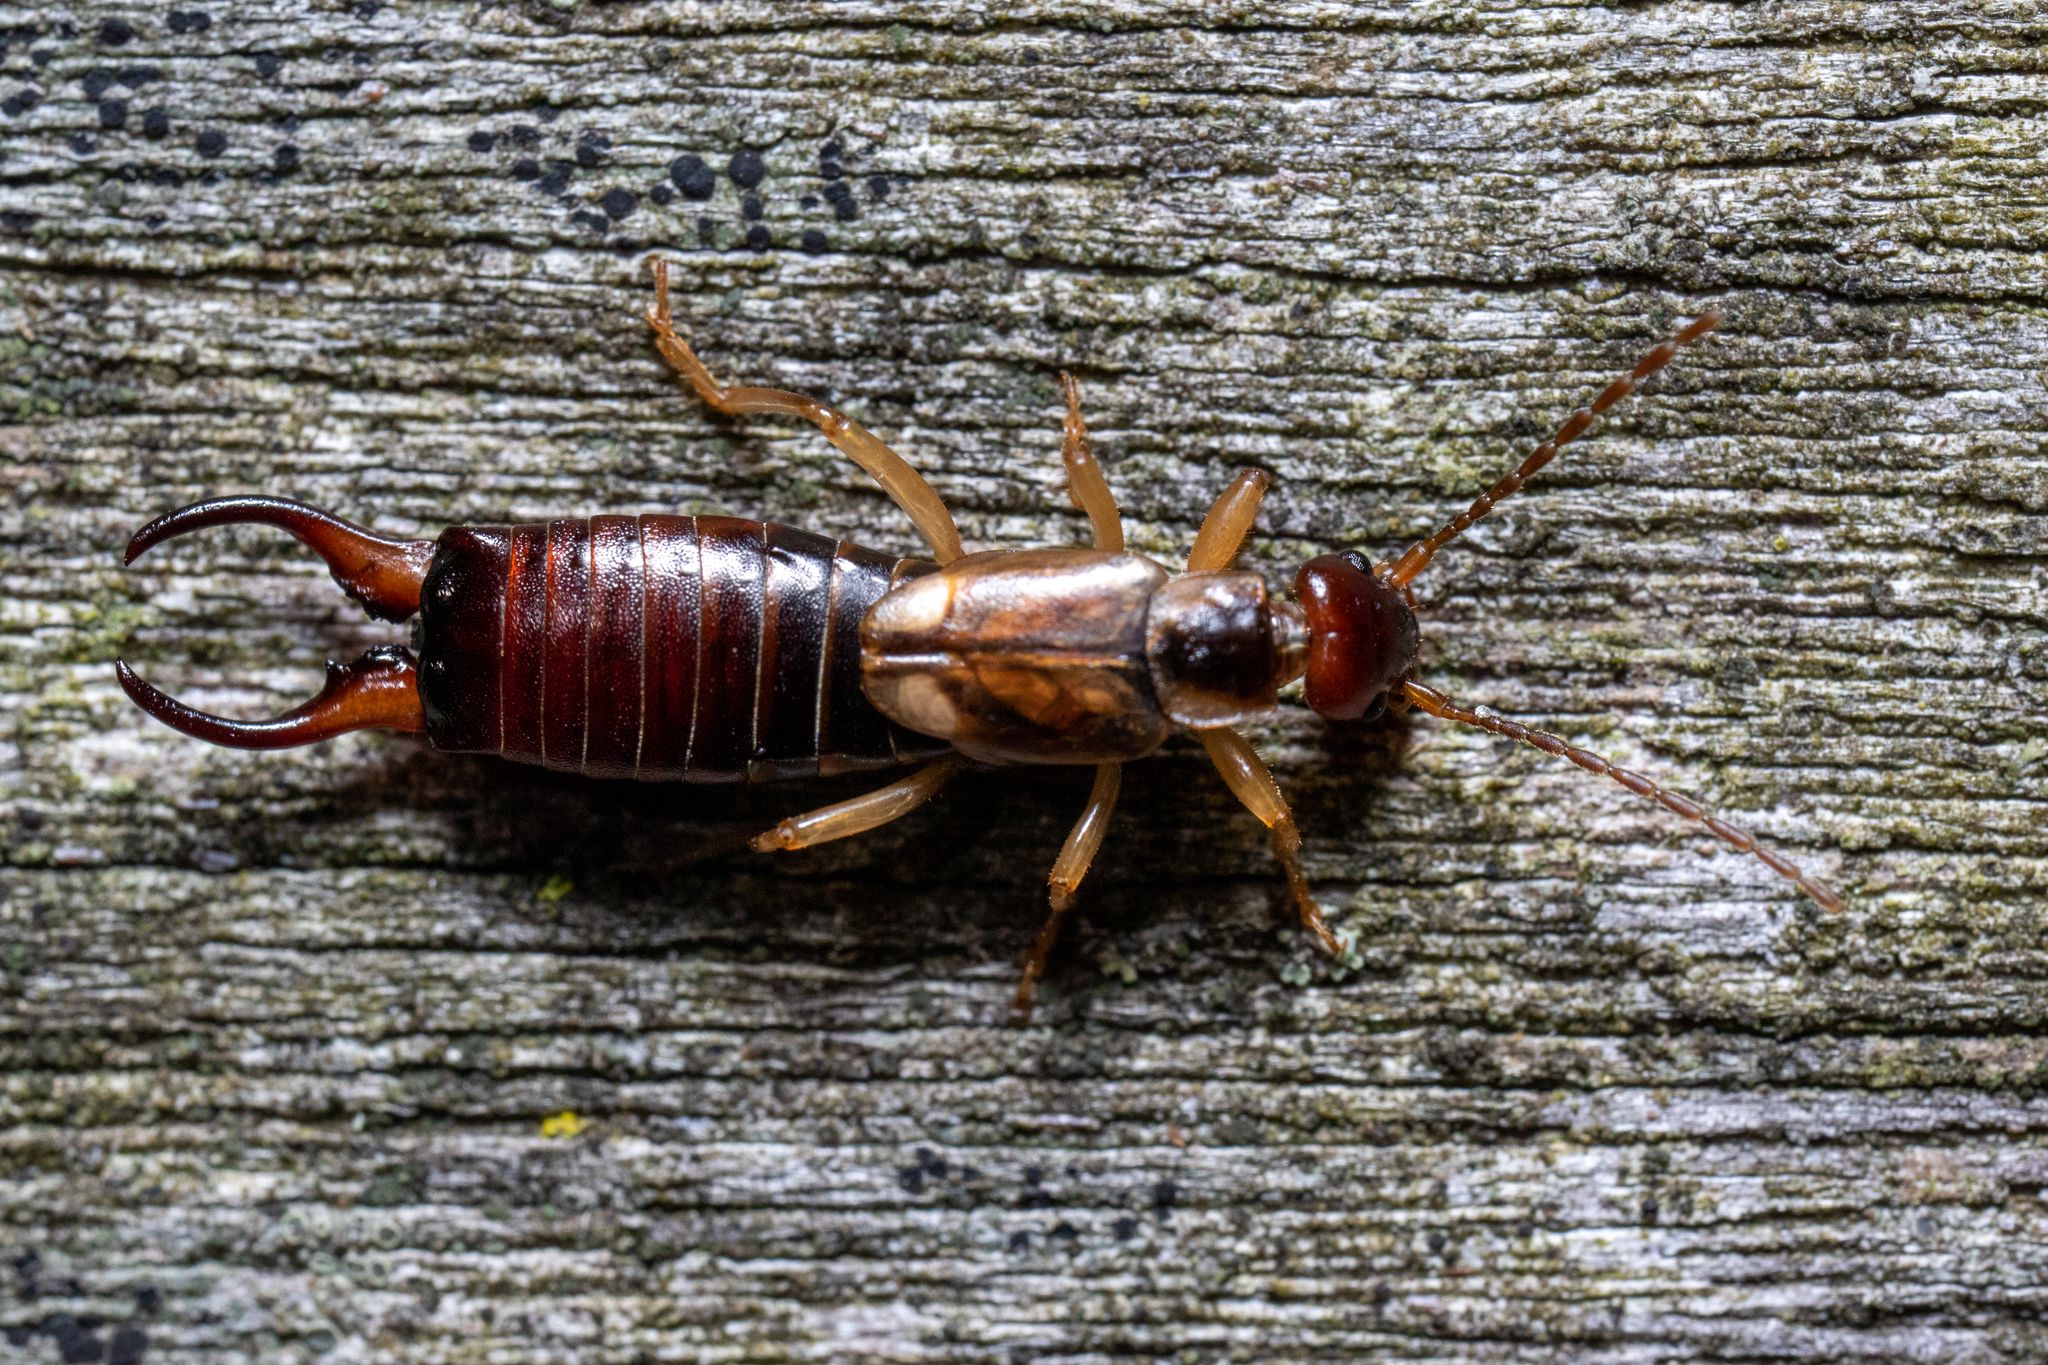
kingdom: Animalia
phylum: Arthropoda
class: Insecta
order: Dermaptera
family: Forficulidae
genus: Forficula
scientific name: Forficula
